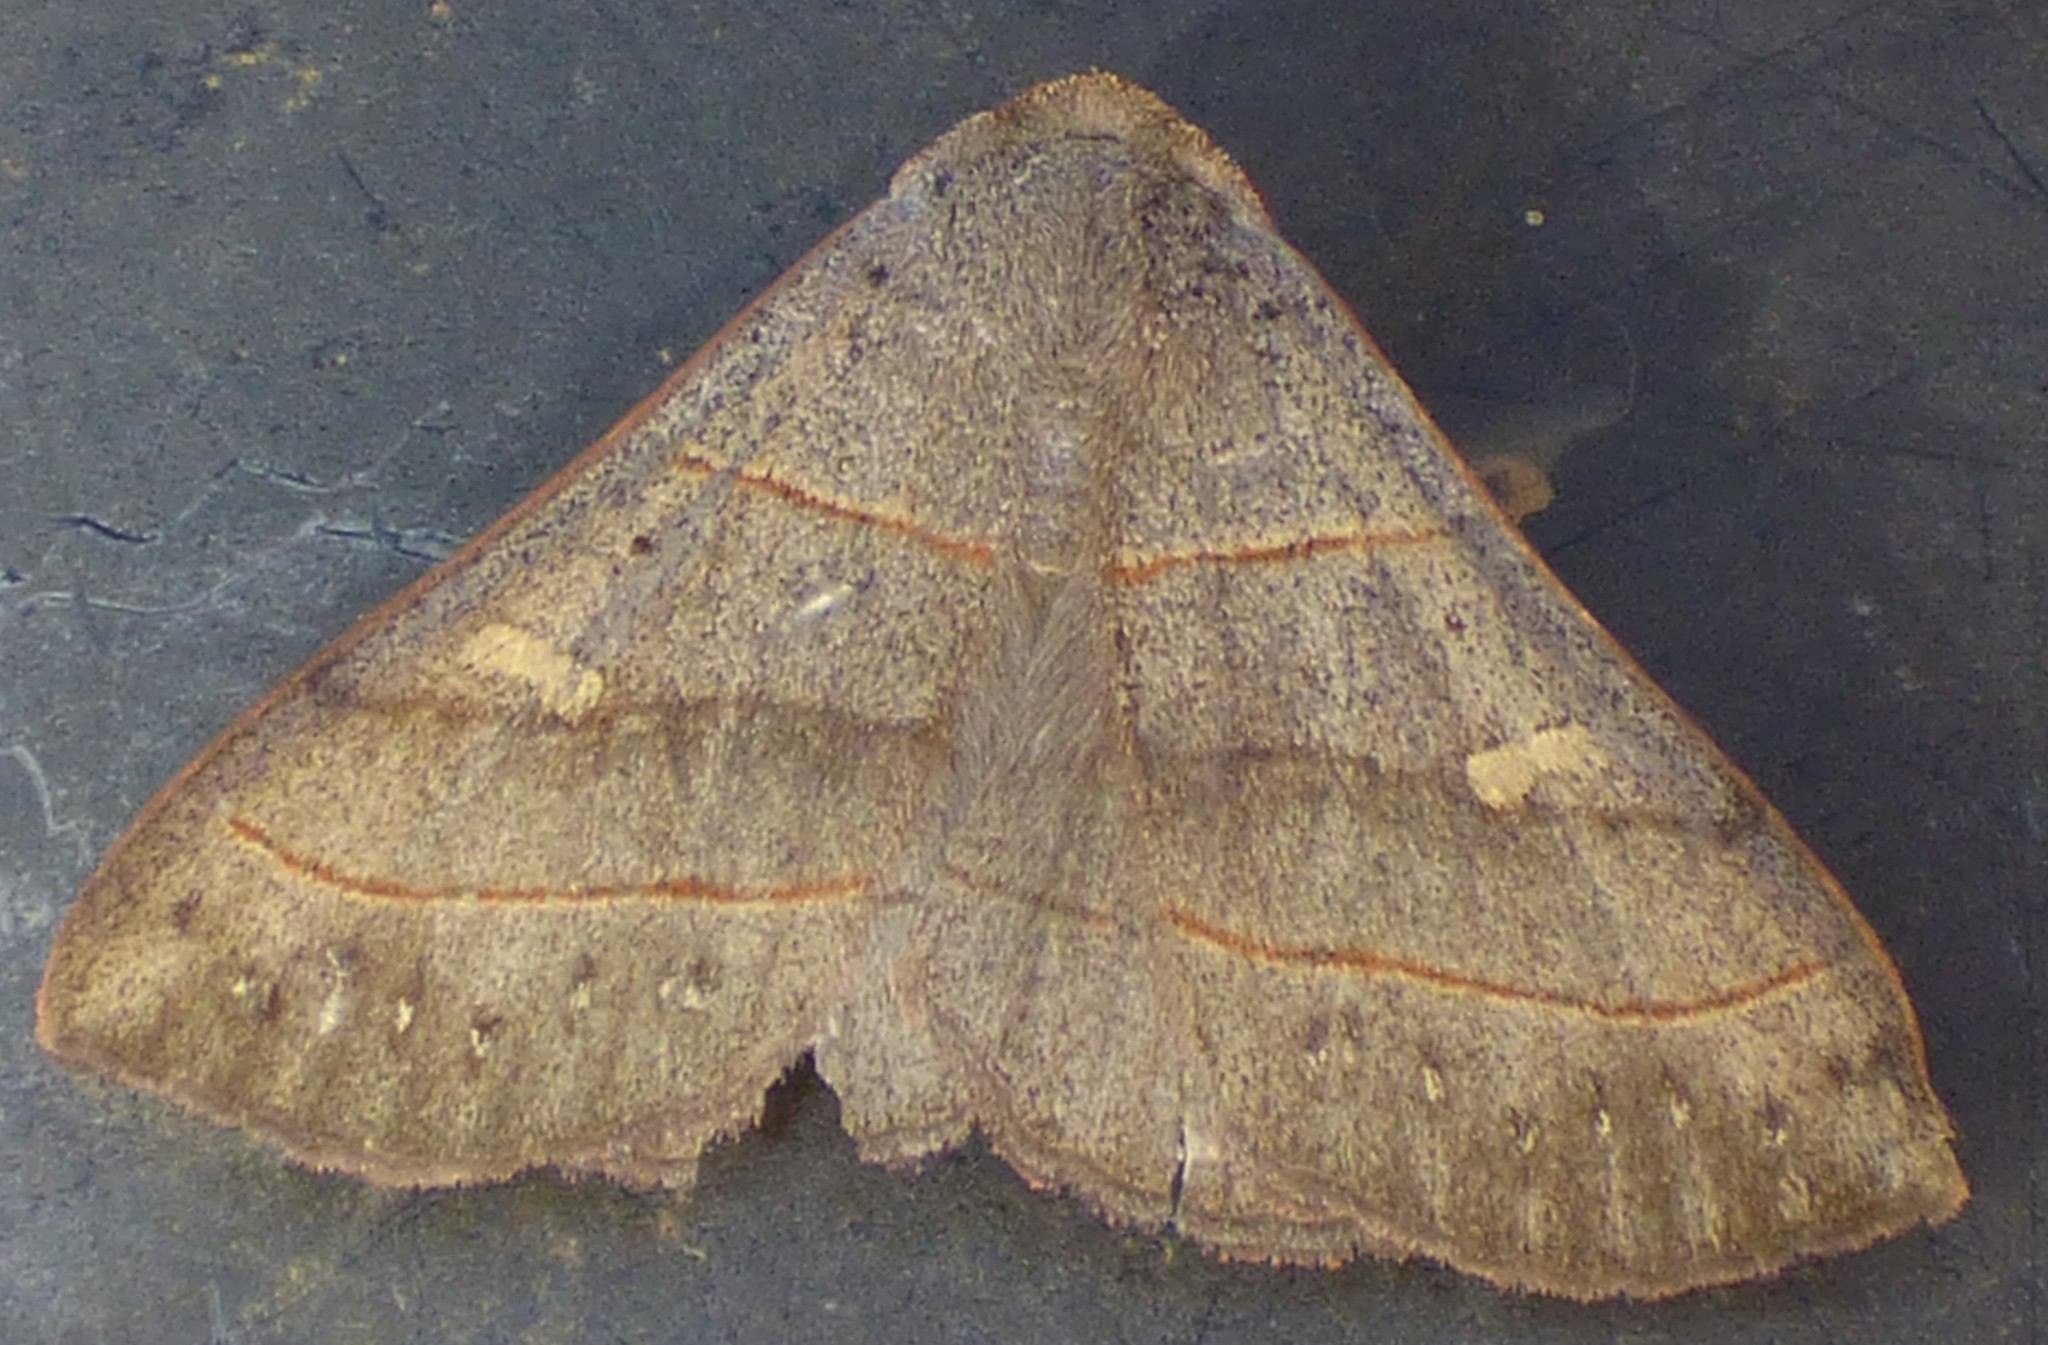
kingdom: Animalia
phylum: Arthropoda
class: Insecta
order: Lepidoptera
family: Erebidae
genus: Panopoda
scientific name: Panopoda rufimargo
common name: Red-lined panopoda moth
